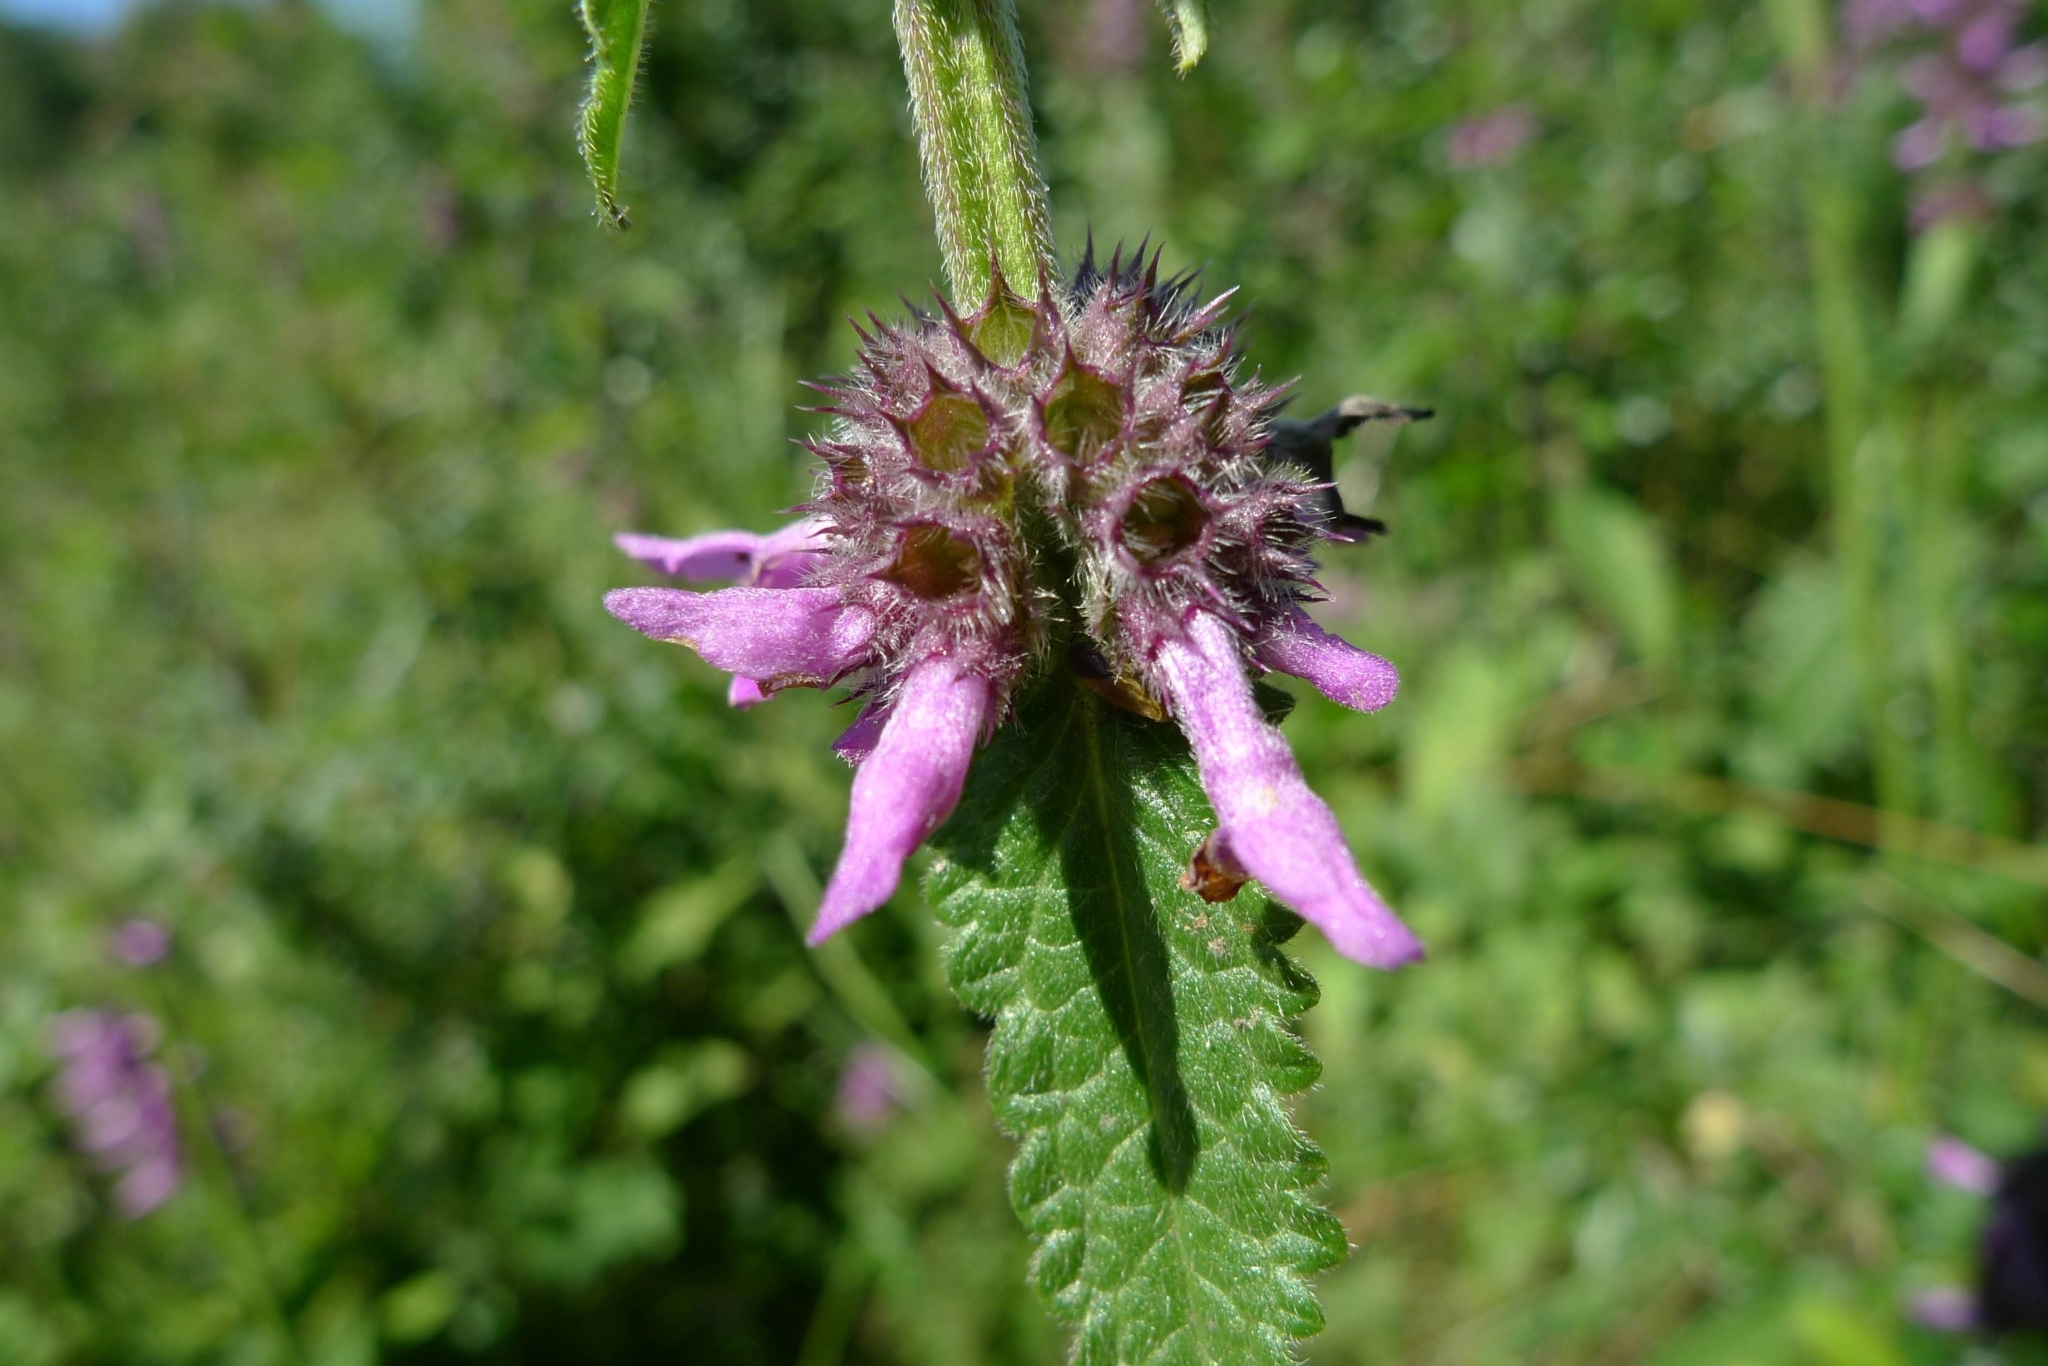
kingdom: Plantae
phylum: Tracheophyta
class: Magnoliopsida
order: Lamiales
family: Lamiaceae
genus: Betonica
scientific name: Betonica officinalis
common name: Bishop's-wort
